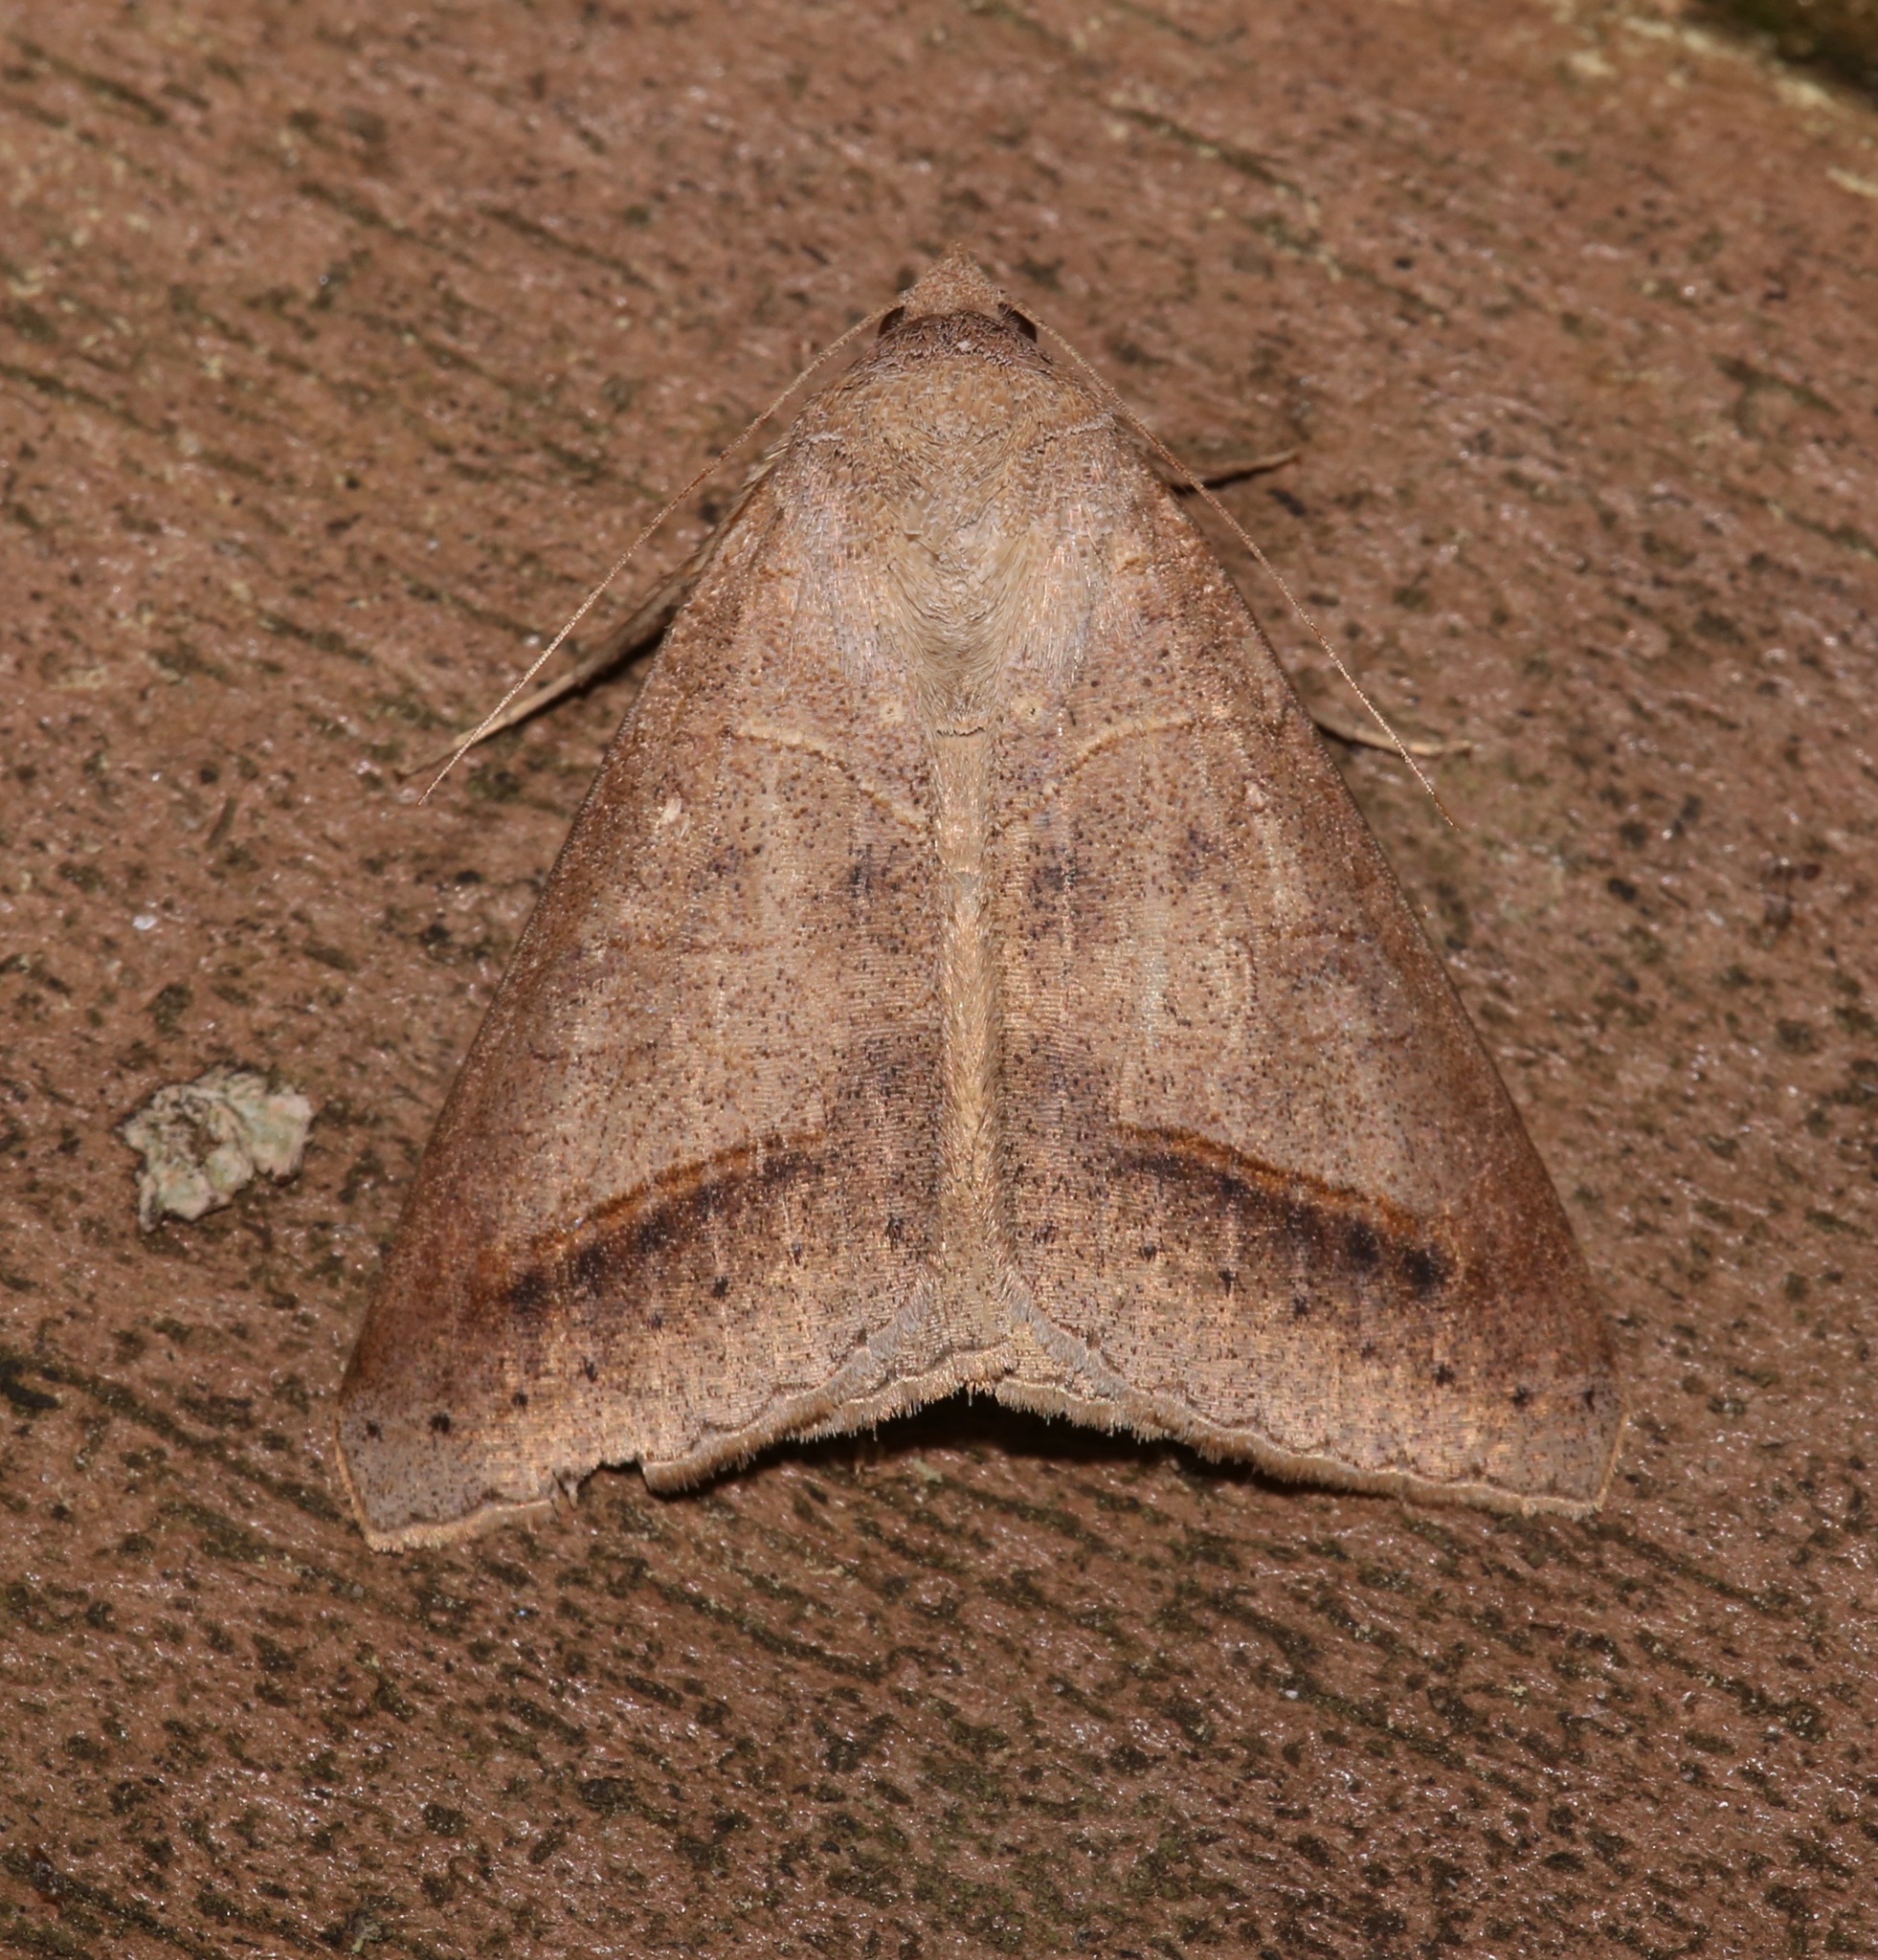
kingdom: Animalia
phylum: Arthropoda
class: Insecta
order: Lepidoptera
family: Erebidae
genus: Mocis
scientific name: Mocis marcida
